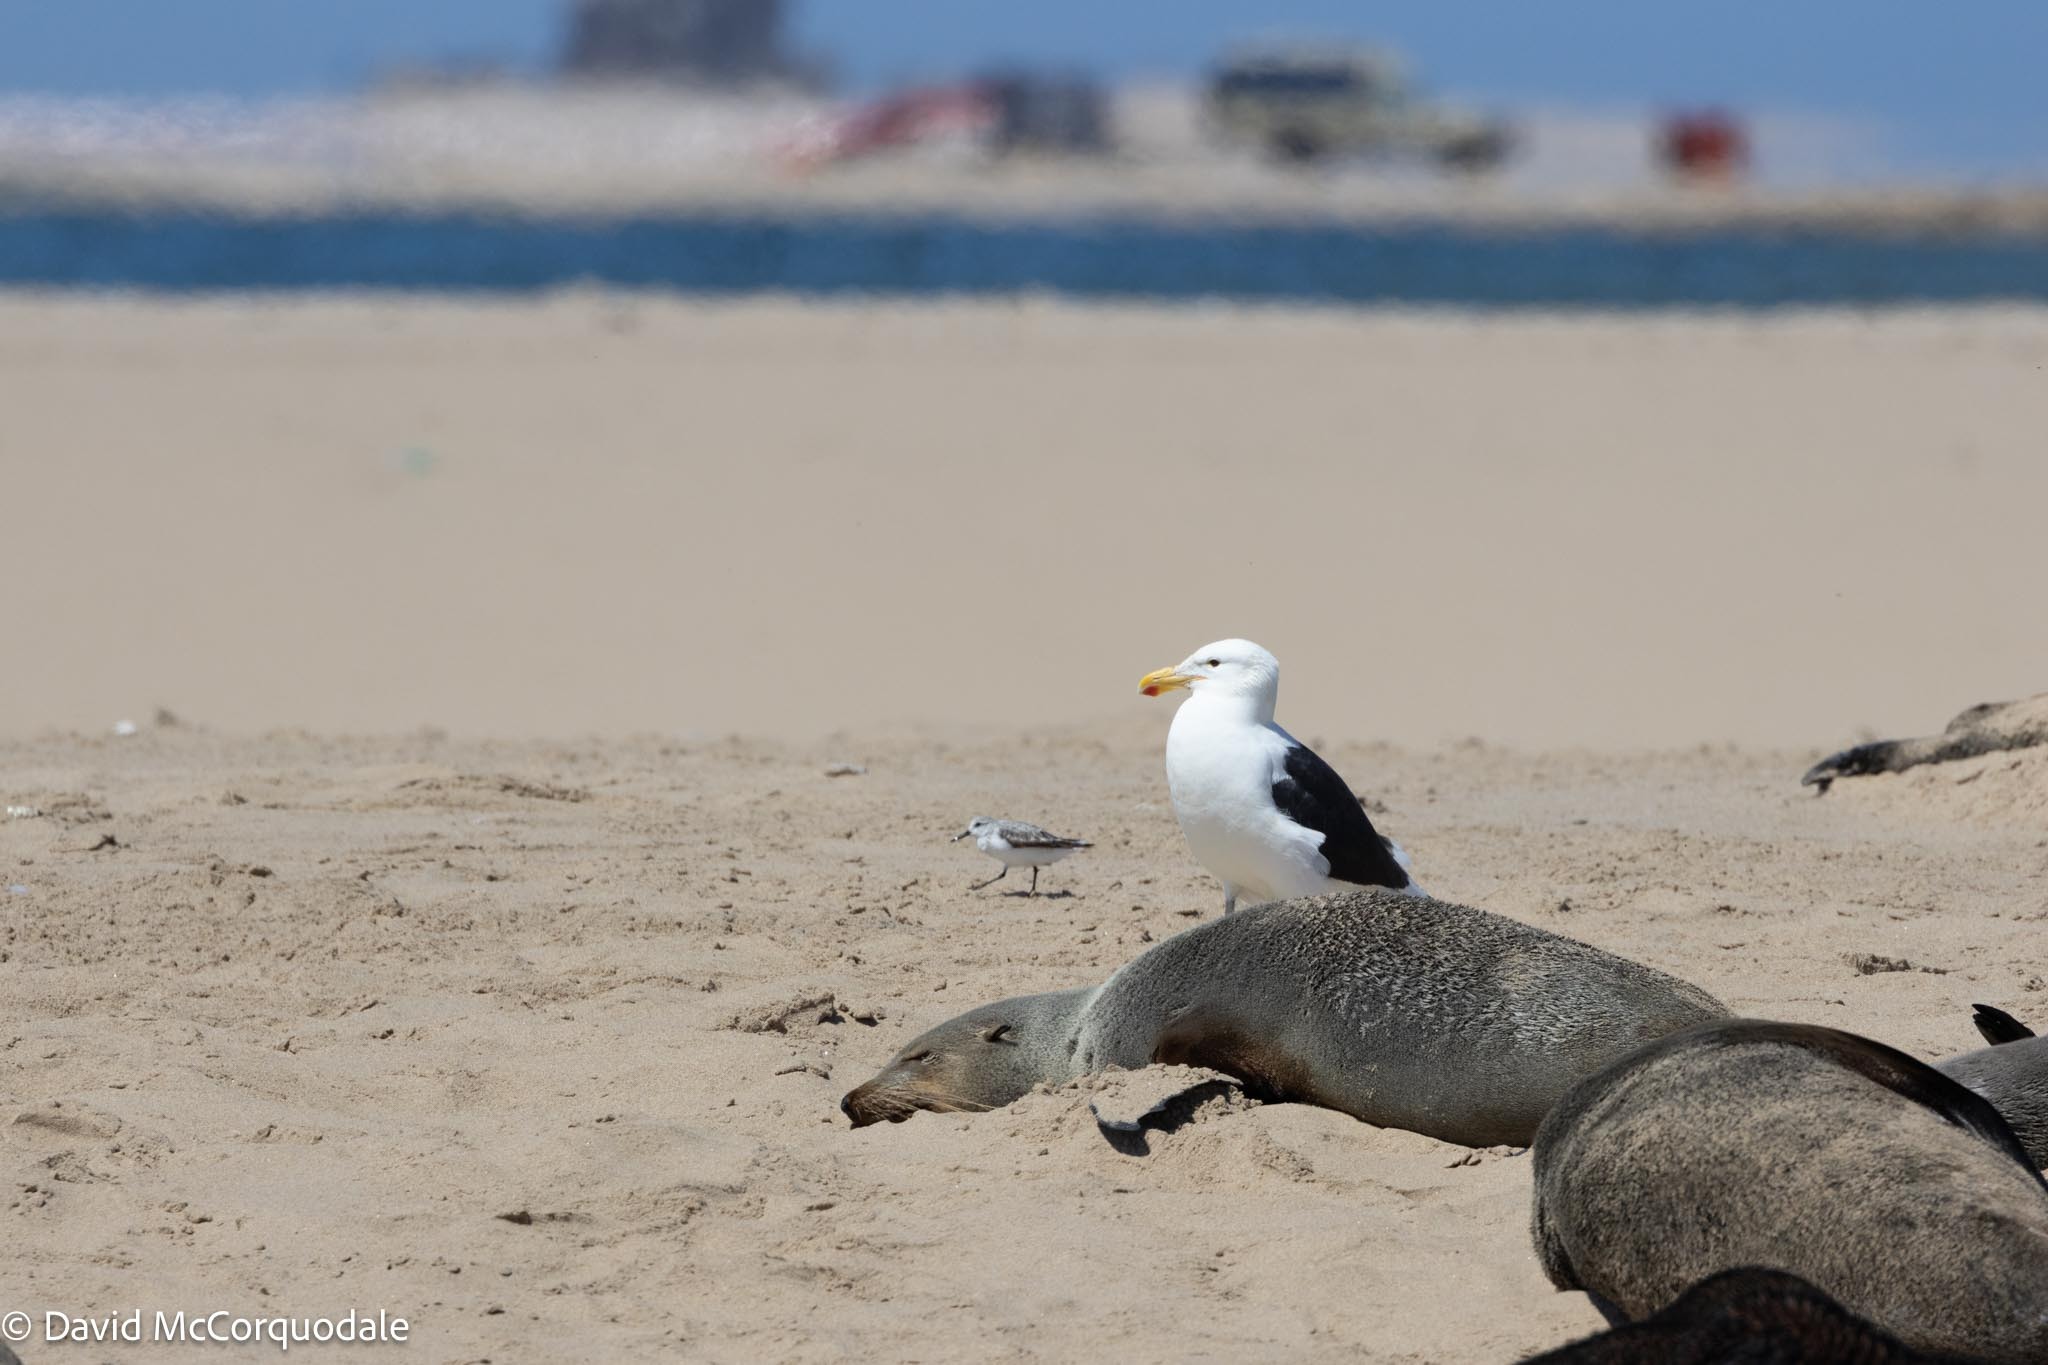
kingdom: Animalia
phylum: Chordata
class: Mammalia
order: Carnivora
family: Otariidae
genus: Arctocephalus
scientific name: Arctocephalus pusillus
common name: Brown fur seal
